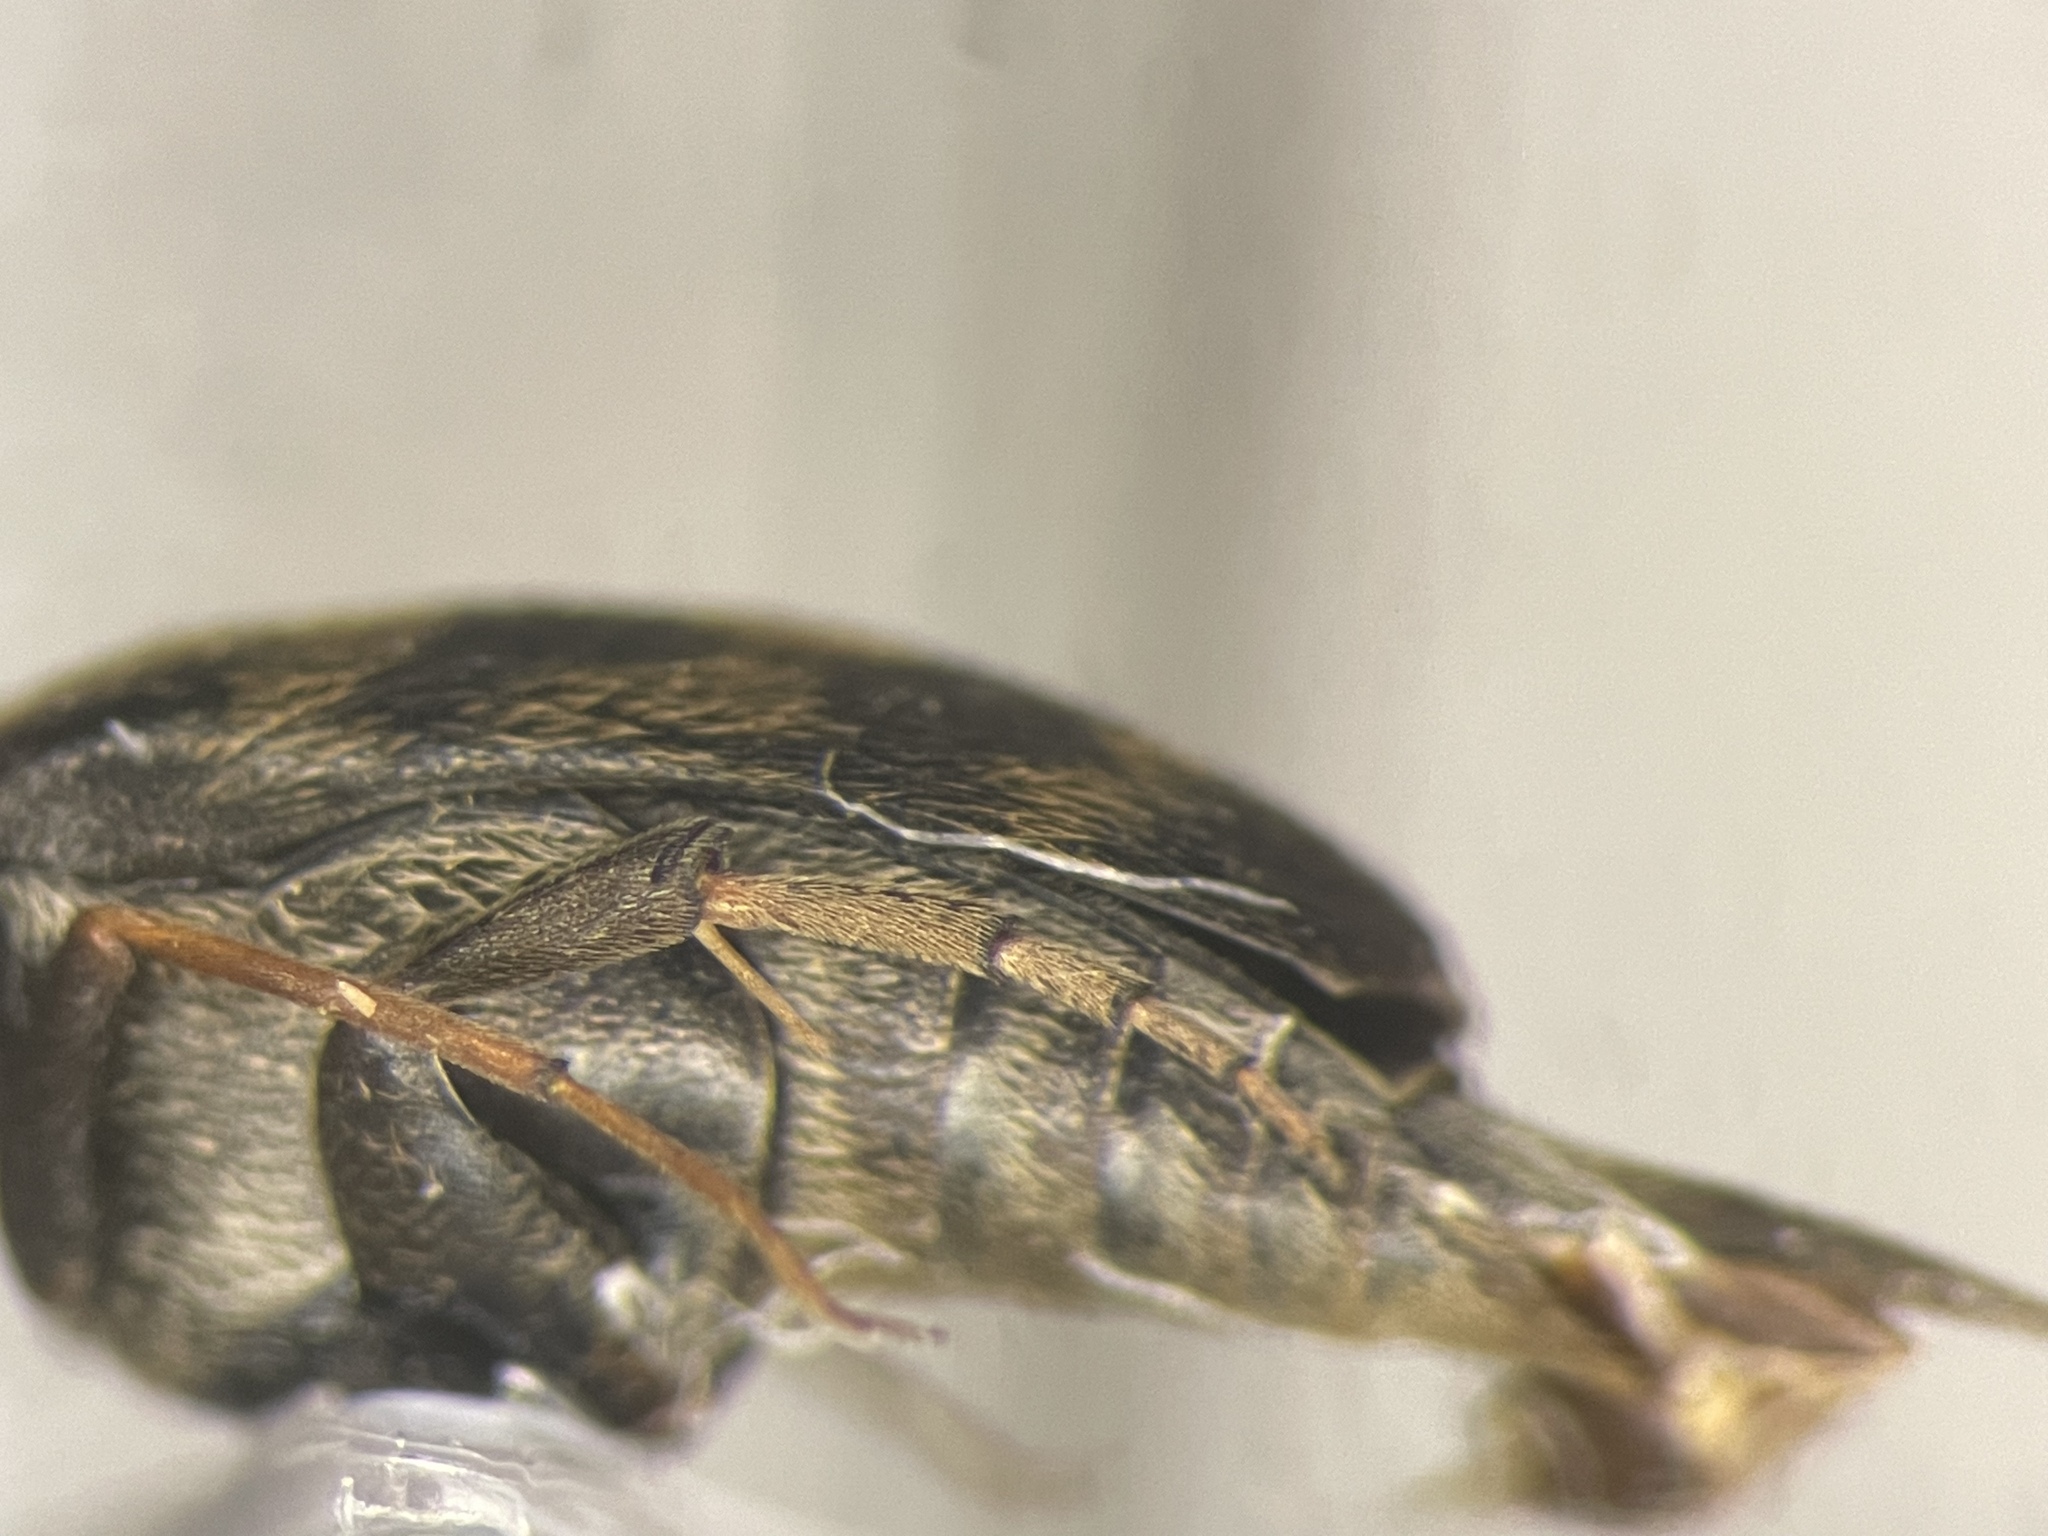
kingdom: Animalia
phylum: Arthropoda
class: Insecta
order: Coleoptera
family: Mordellidae
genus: Paramordellaria
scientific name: Paramordellaria triloba
